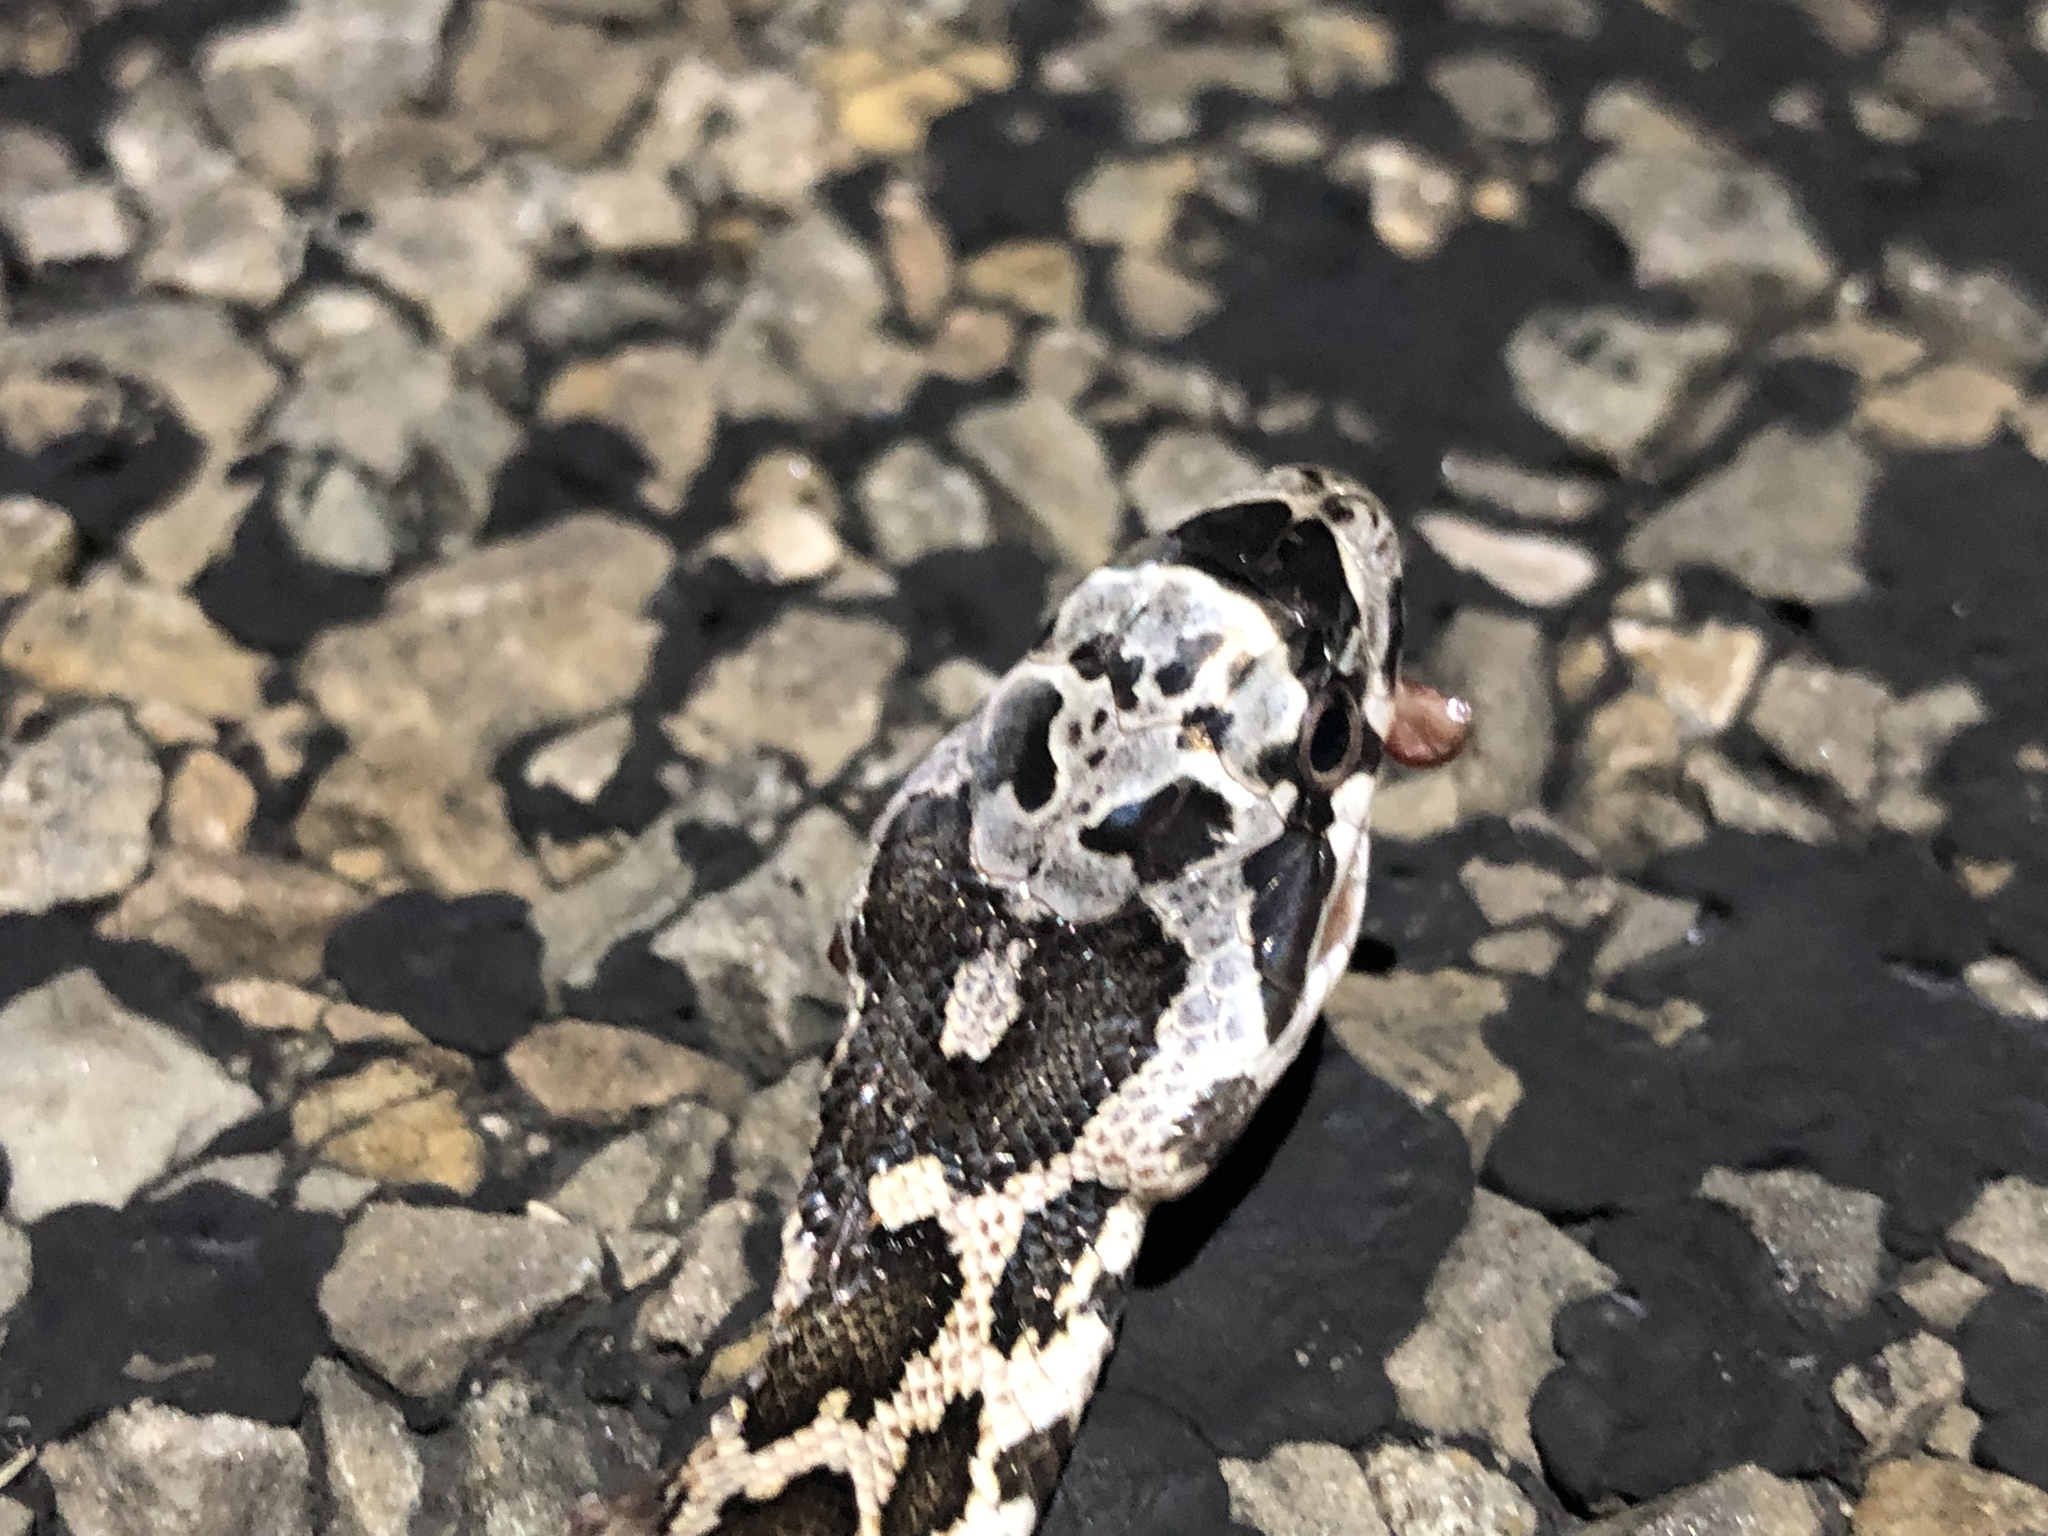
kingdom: Animalia
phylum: Chordata
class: Squamata
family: Colubridae
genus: Pantherophis
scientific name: Pantherophis obsoletus
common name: Black rat snake
